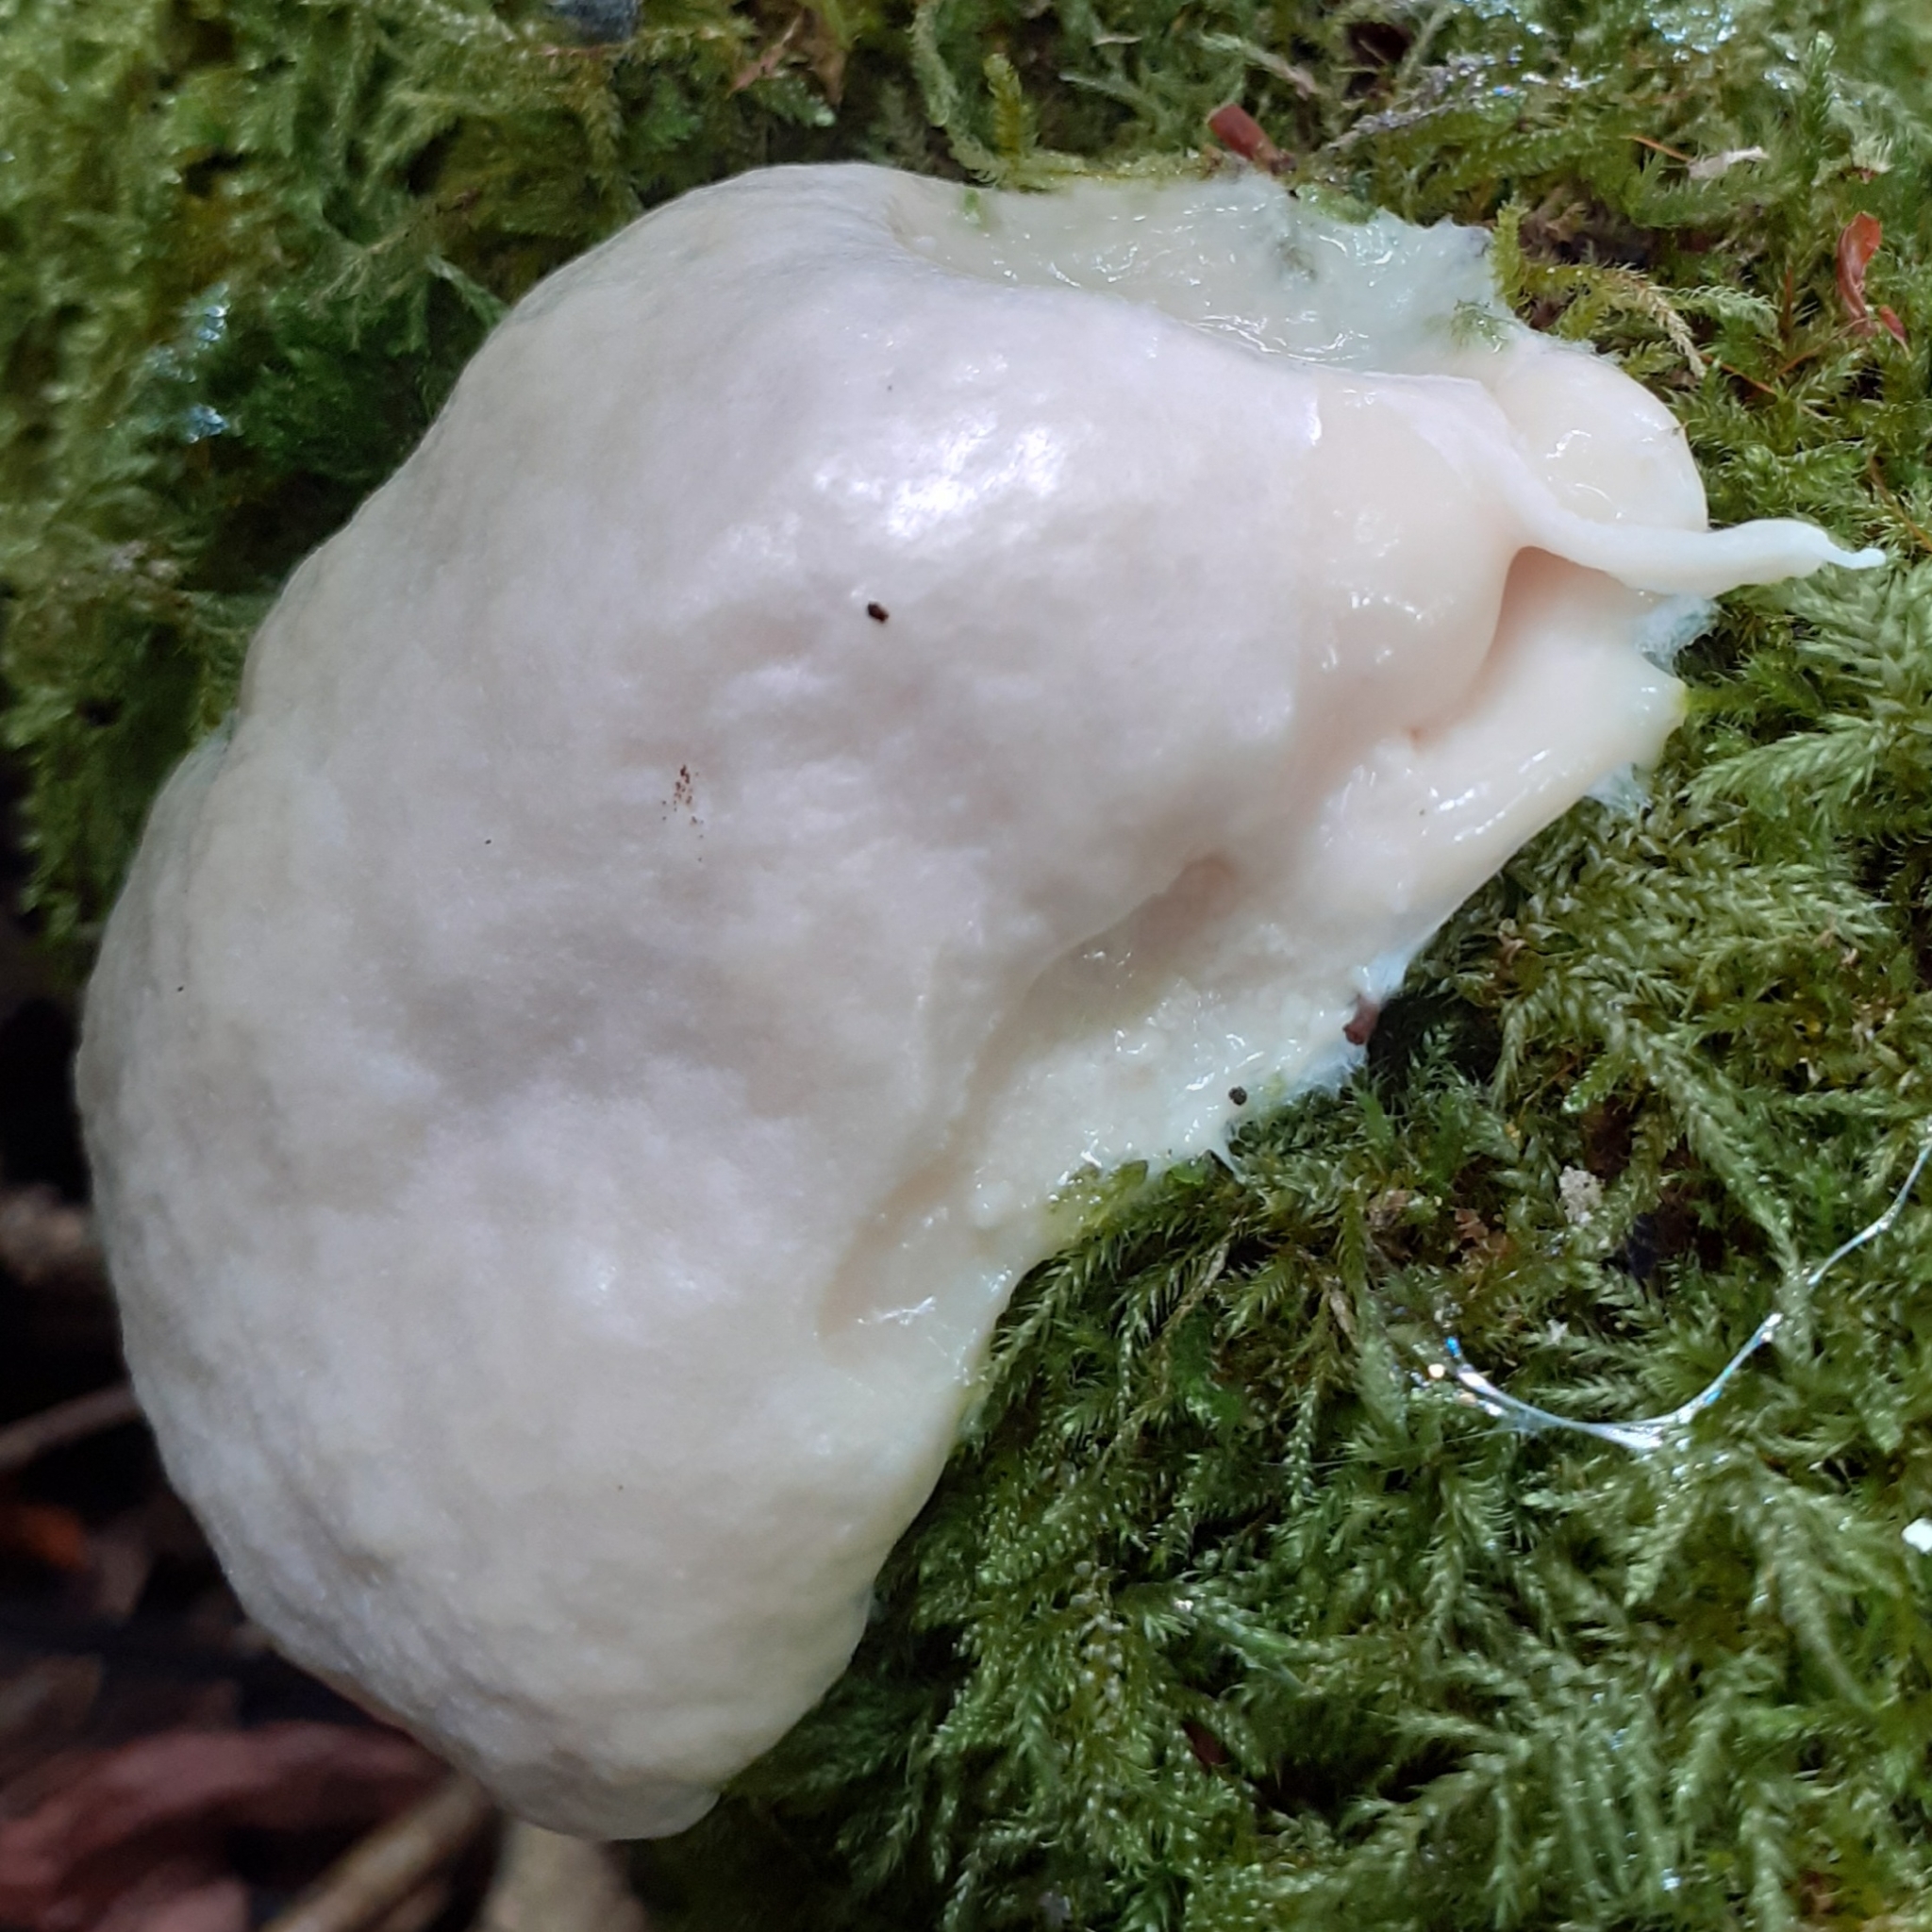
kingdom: Protozoa
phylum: Mycetozoa
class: Myxomycetes
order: Cribrariales
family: Tubiferaceae
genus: Reticularia
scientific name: Reticularia lycoperdon
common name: False puffball
